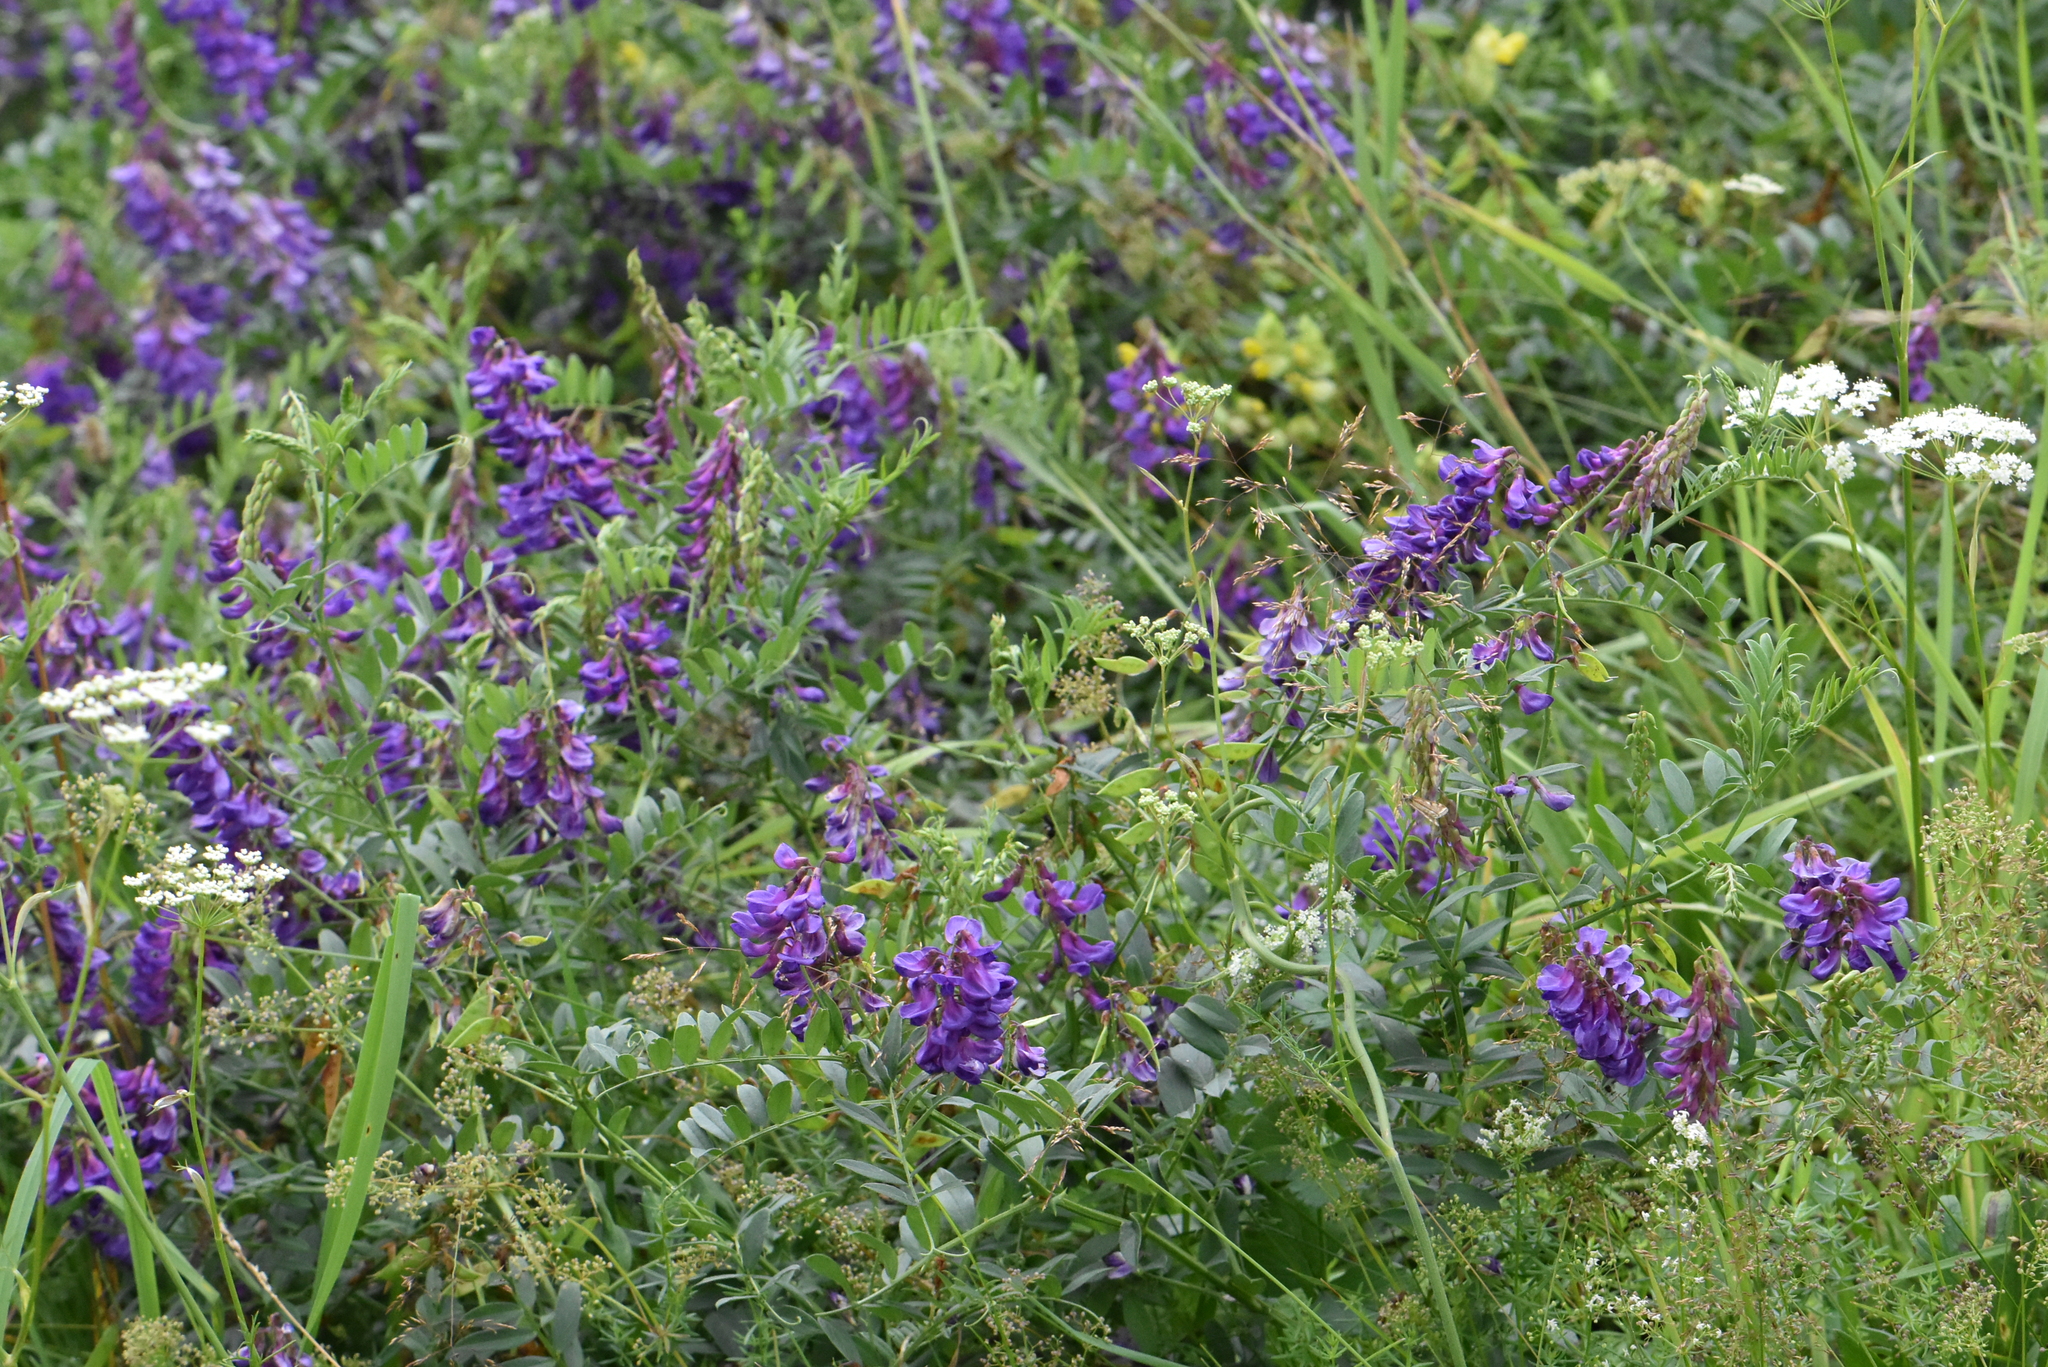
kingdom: Plantae
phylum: Tracheophyta
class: Magnoliopsida
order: Fabales
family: Fabaceae
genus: Vicia
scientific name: Vicia amoena
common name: Cheder ebs
